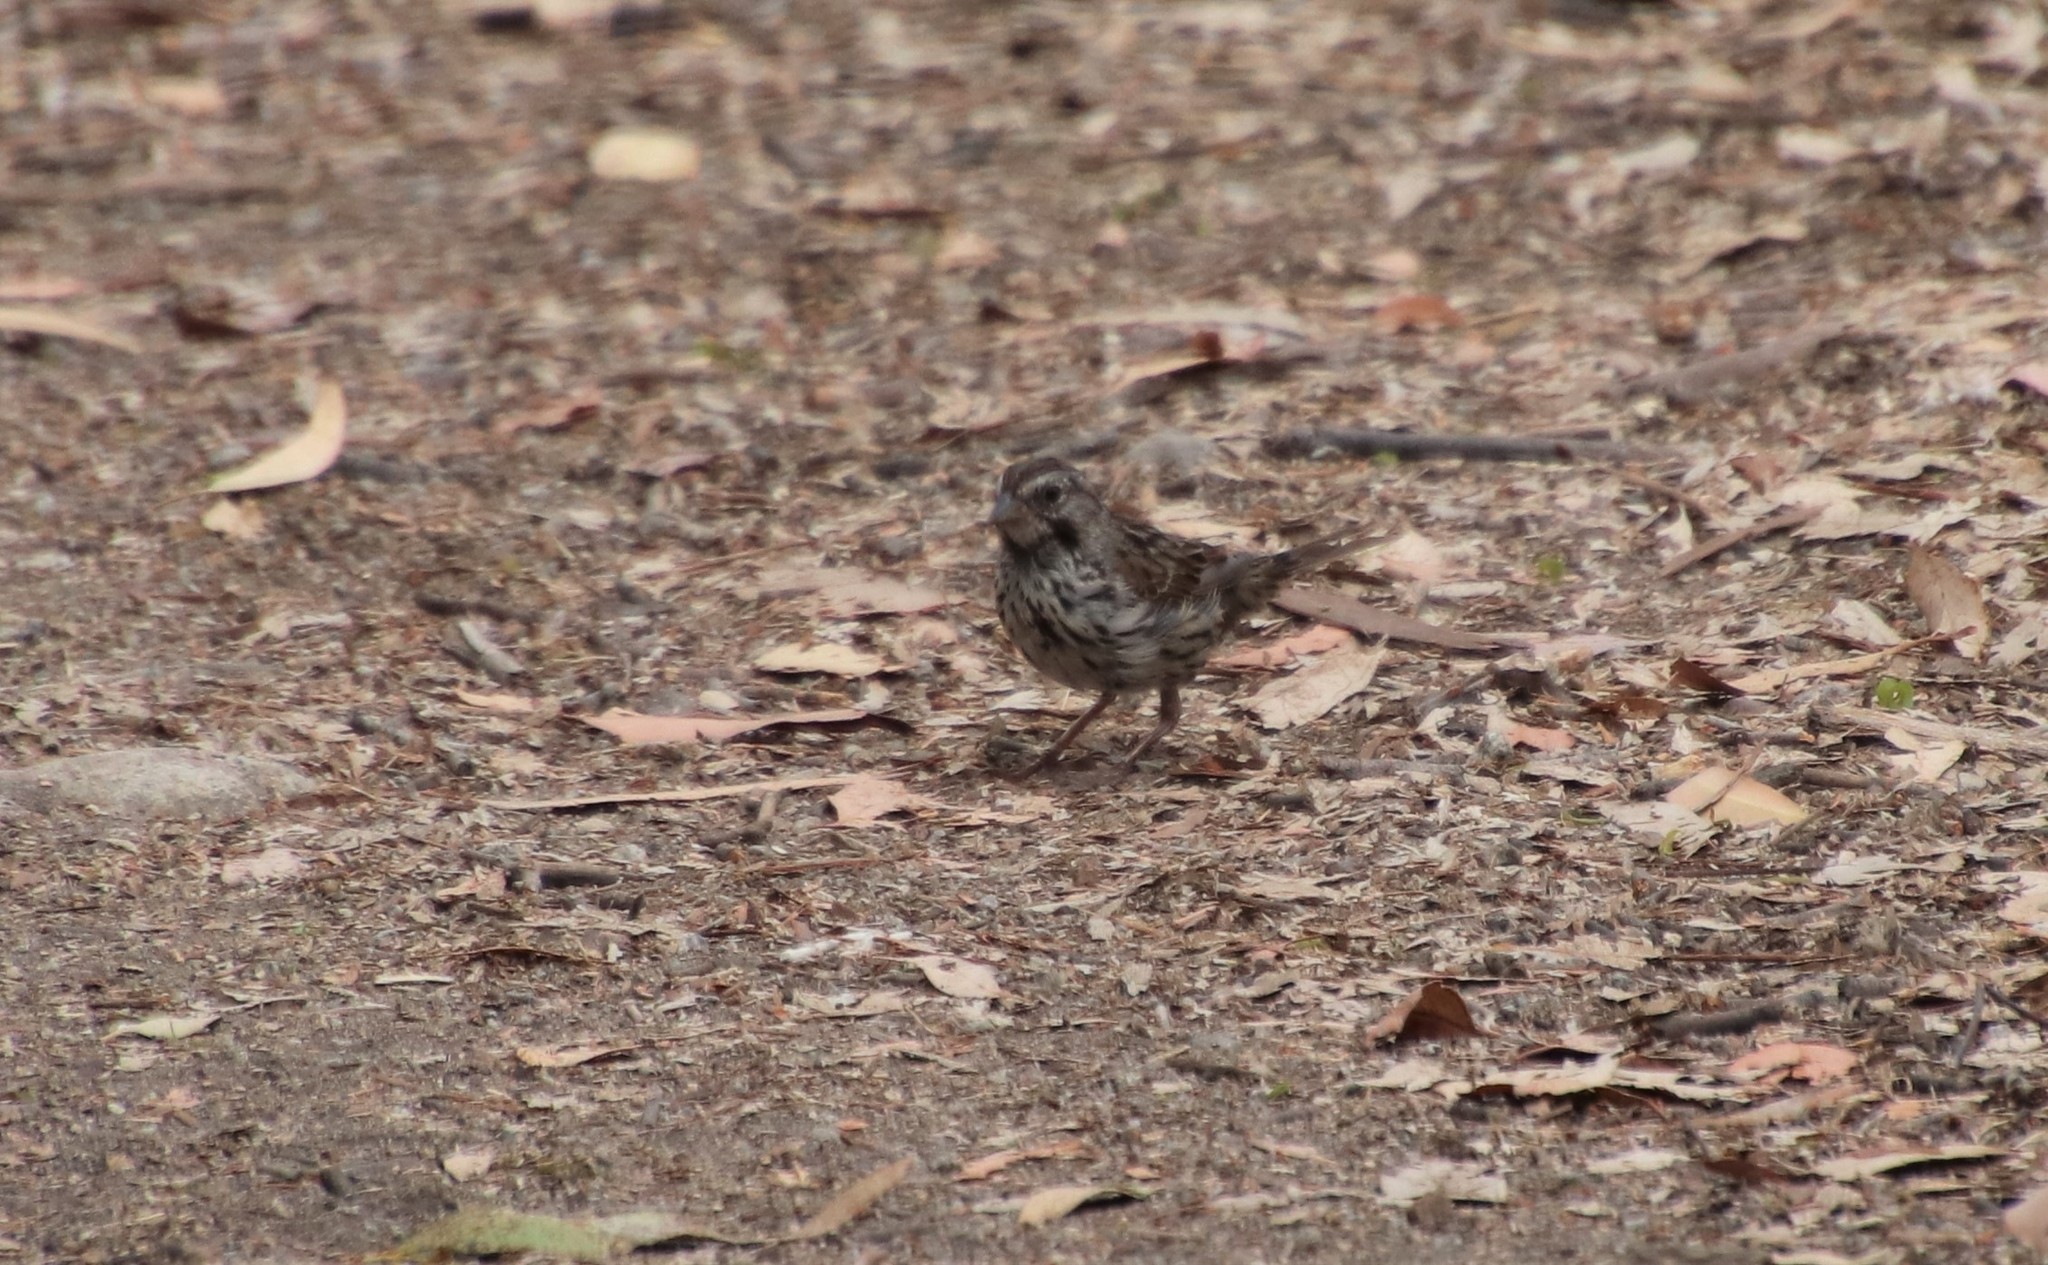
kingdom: Animalia
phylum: Chordata
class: Aves
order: Passeriformes
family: Passerellidae
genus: Melospiza
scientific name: Melospiza melodia
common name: Song sparrow
